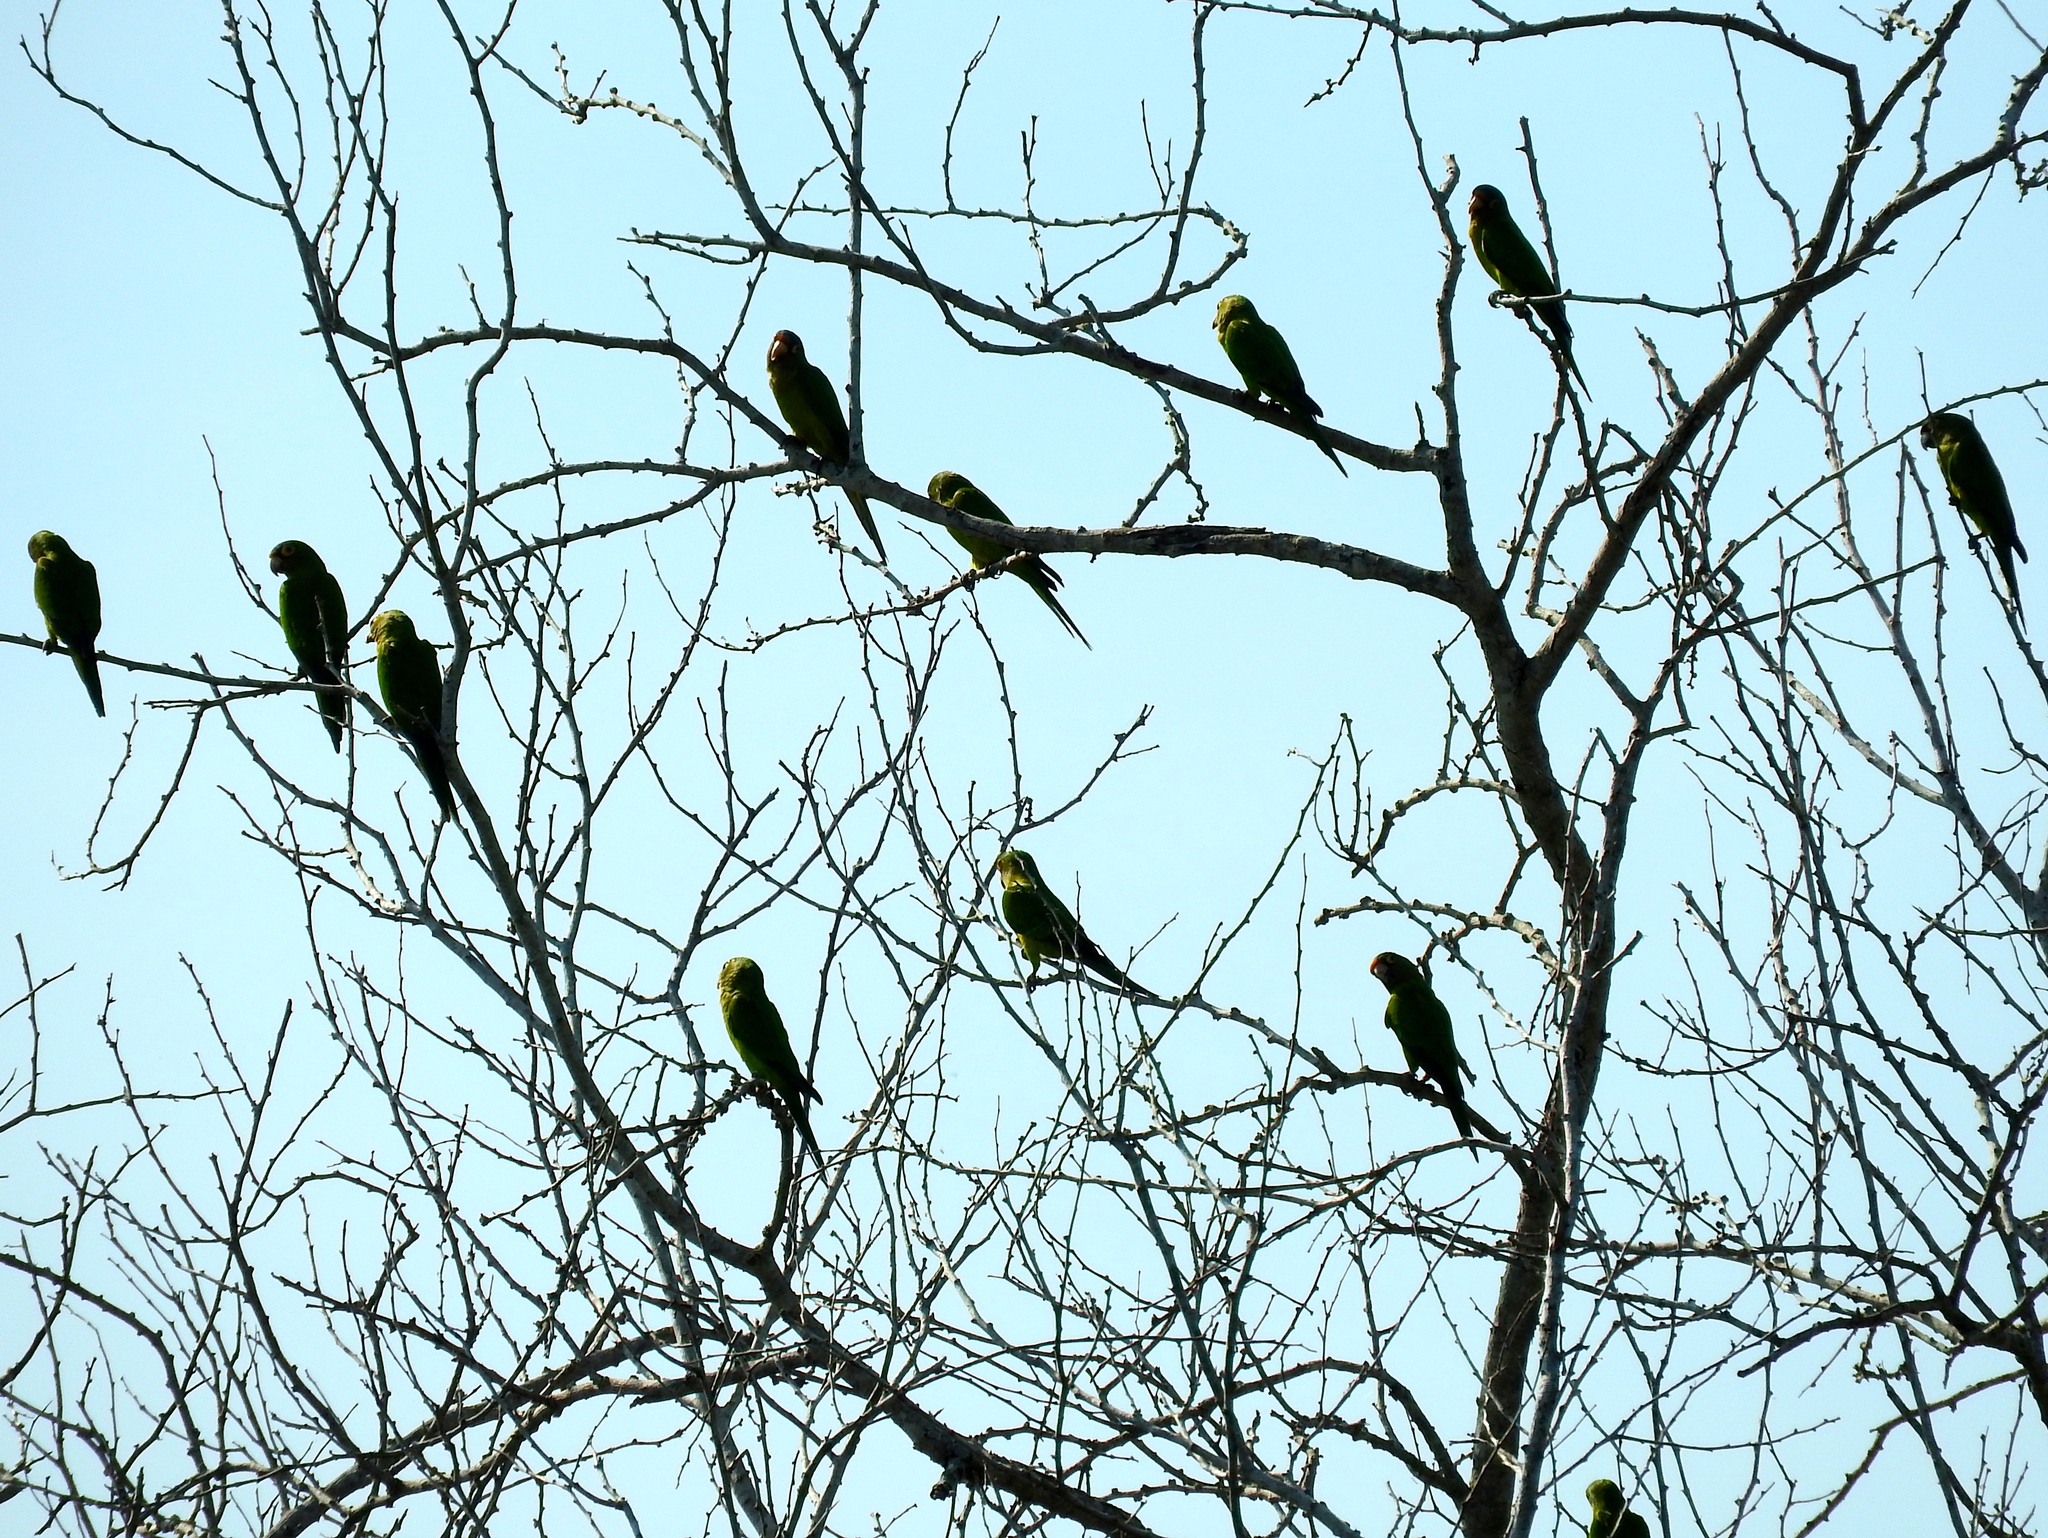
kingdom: Animalia
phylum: Chordata
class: Aves
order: Psittaciformes
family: Psittacidae
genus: Aratinga
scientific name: Aratinga canicularis
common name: Orange-fronted parakeet
